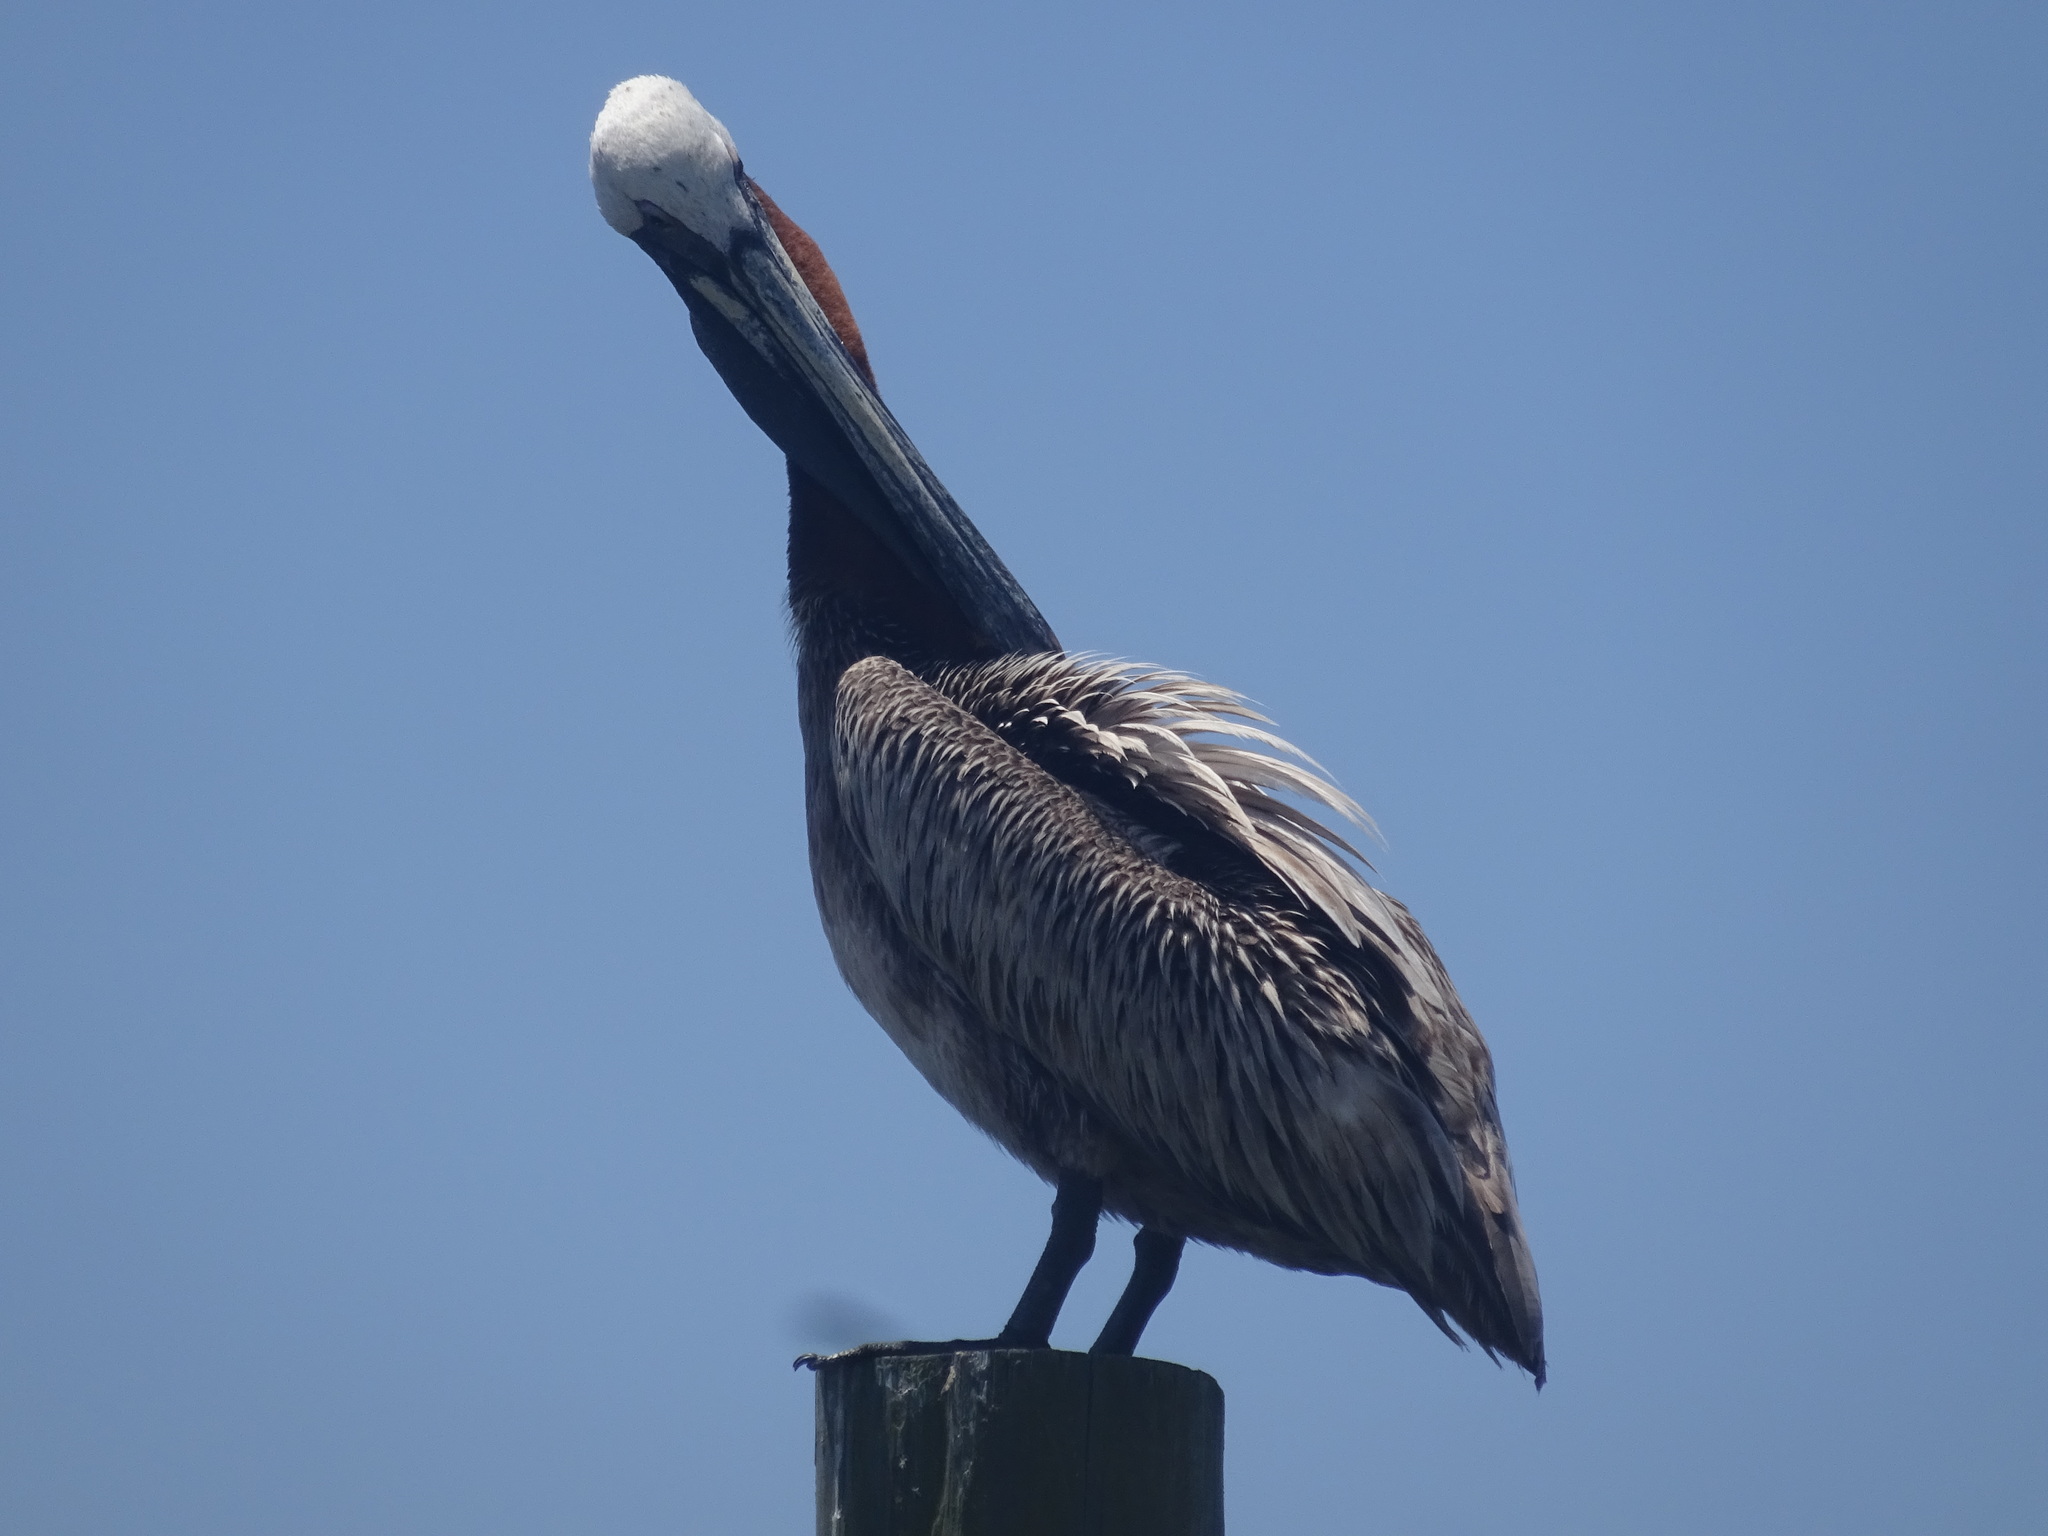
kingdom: Animalia
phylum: Chordata
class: Aves
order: Pelecaniformes
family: Pelecanidae
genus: Pelecanus
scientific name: Pelecanus occidentalis
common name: Brown pelican
